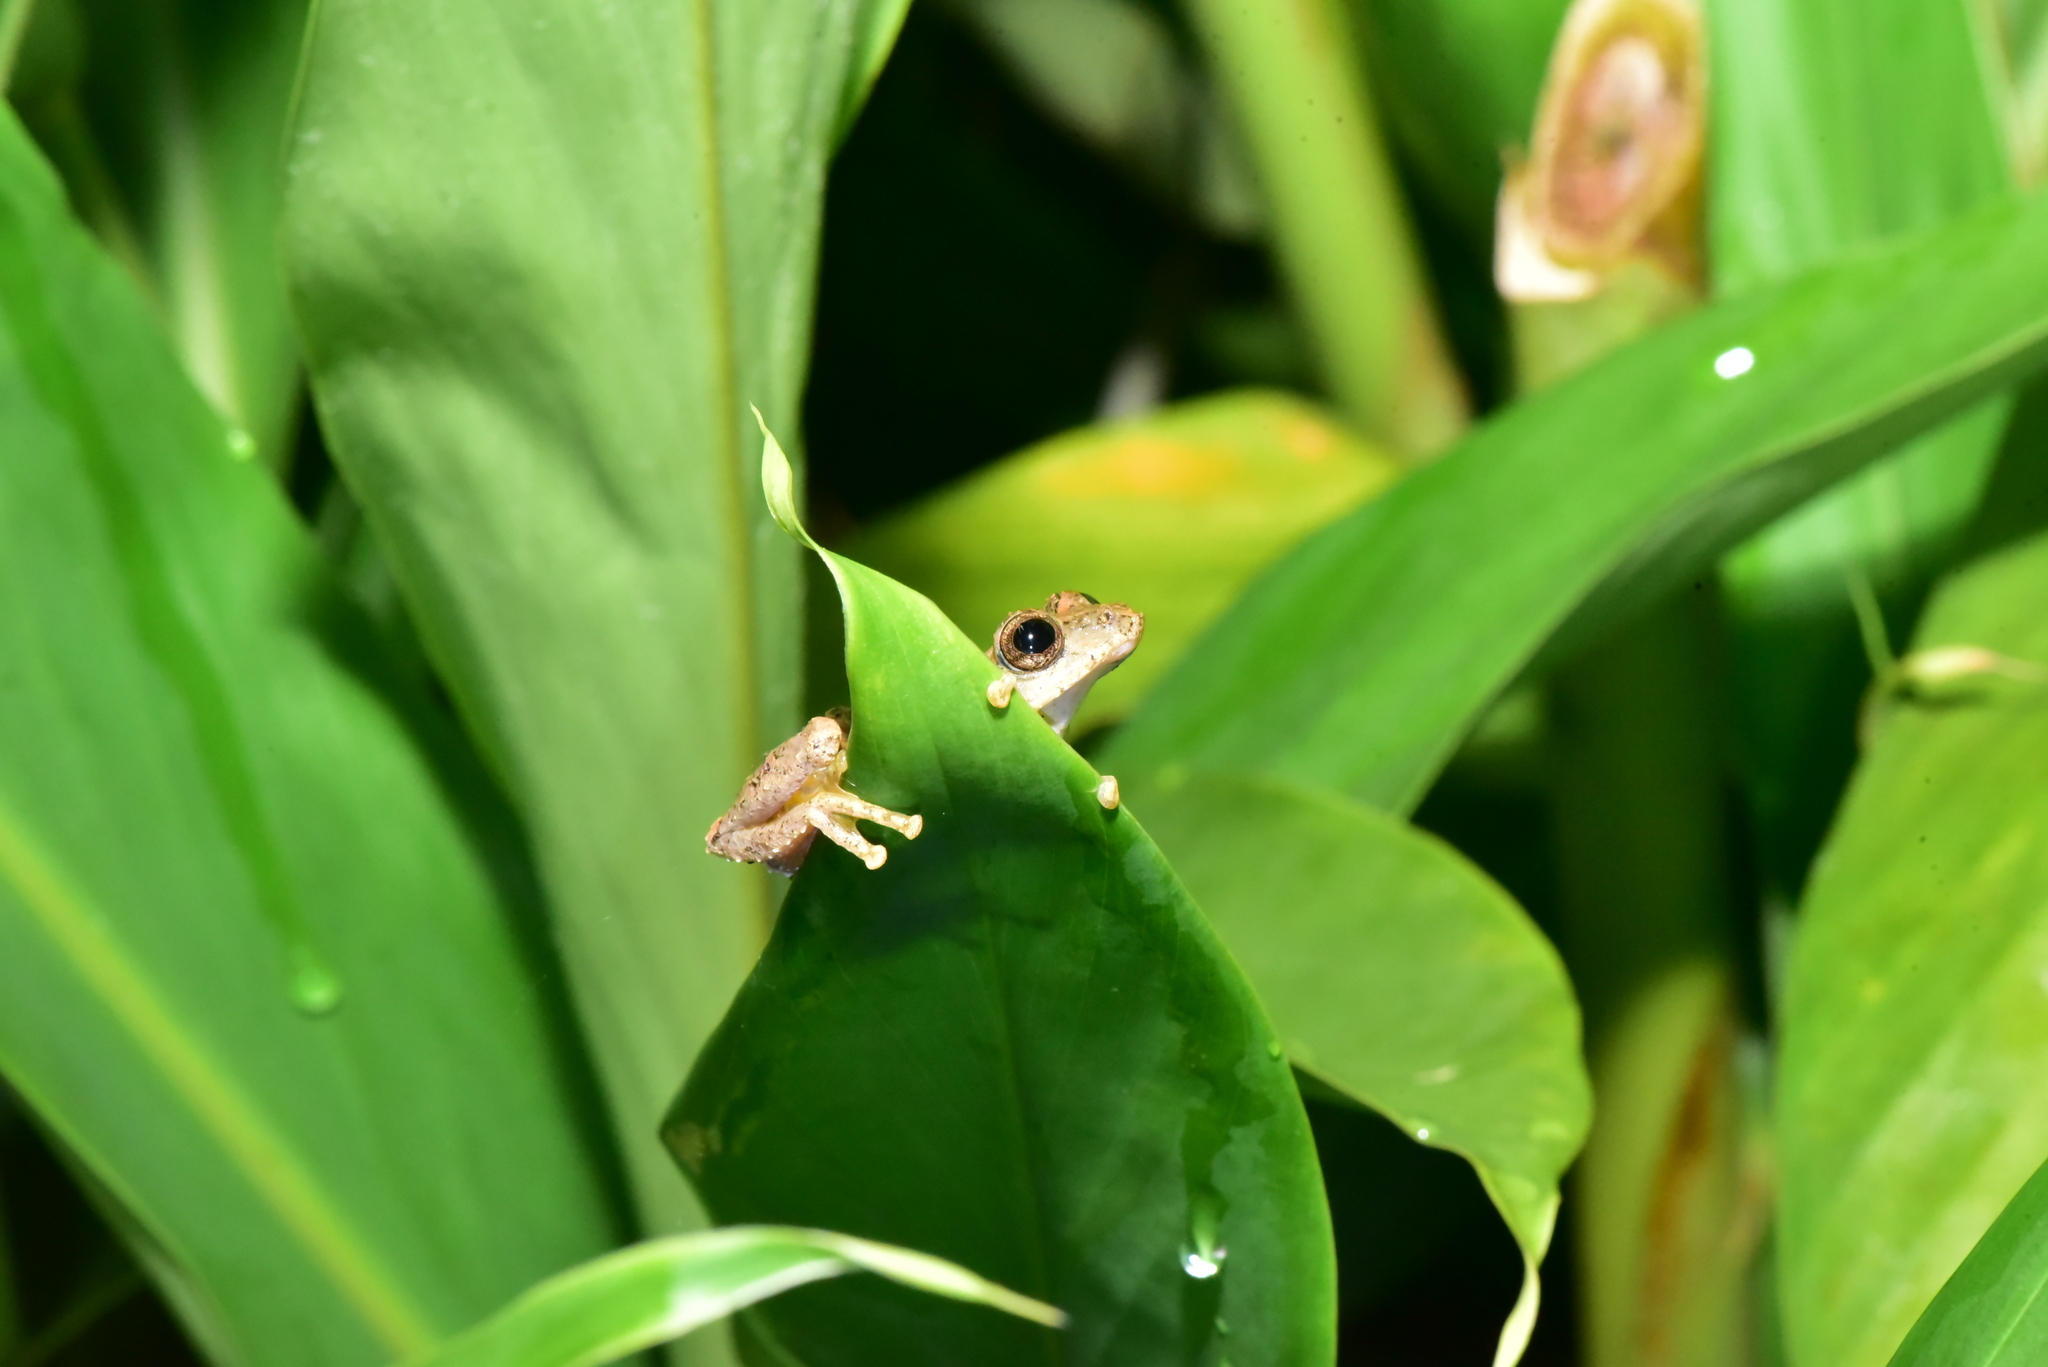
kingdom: Animalia
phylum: Chordata
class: Amphibia
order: Anura
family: Rhacophoridae
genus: Kurixalus
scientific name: Kurixalus idiootocus
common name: Temple treefrog
